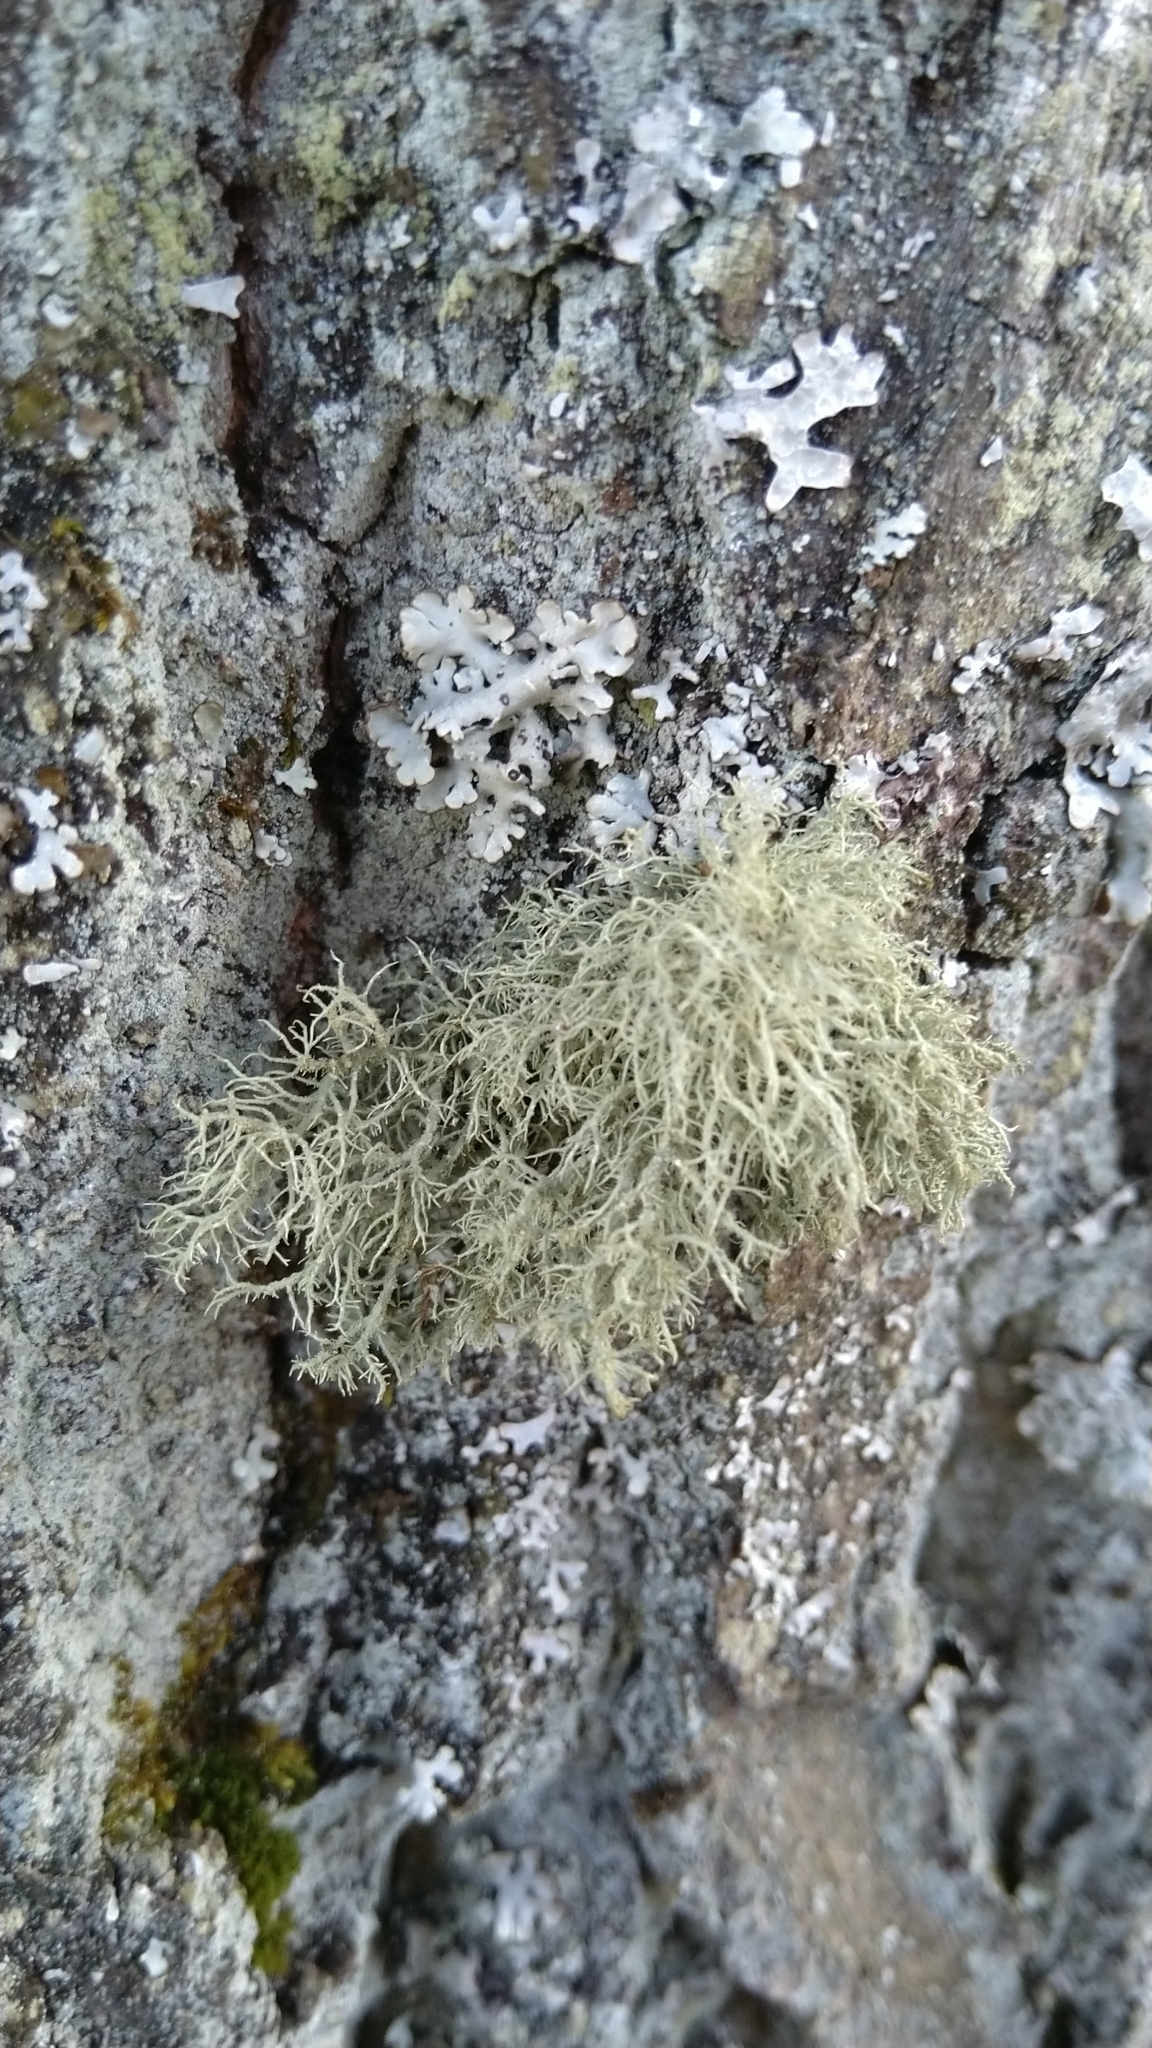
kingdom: Fungi
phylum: Ascomycota
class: Lecanoromycetes
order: Lecanorales
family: Parmeliaceae
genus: Usnea
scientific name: Usnea hirta
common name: Bristly beard lichen
